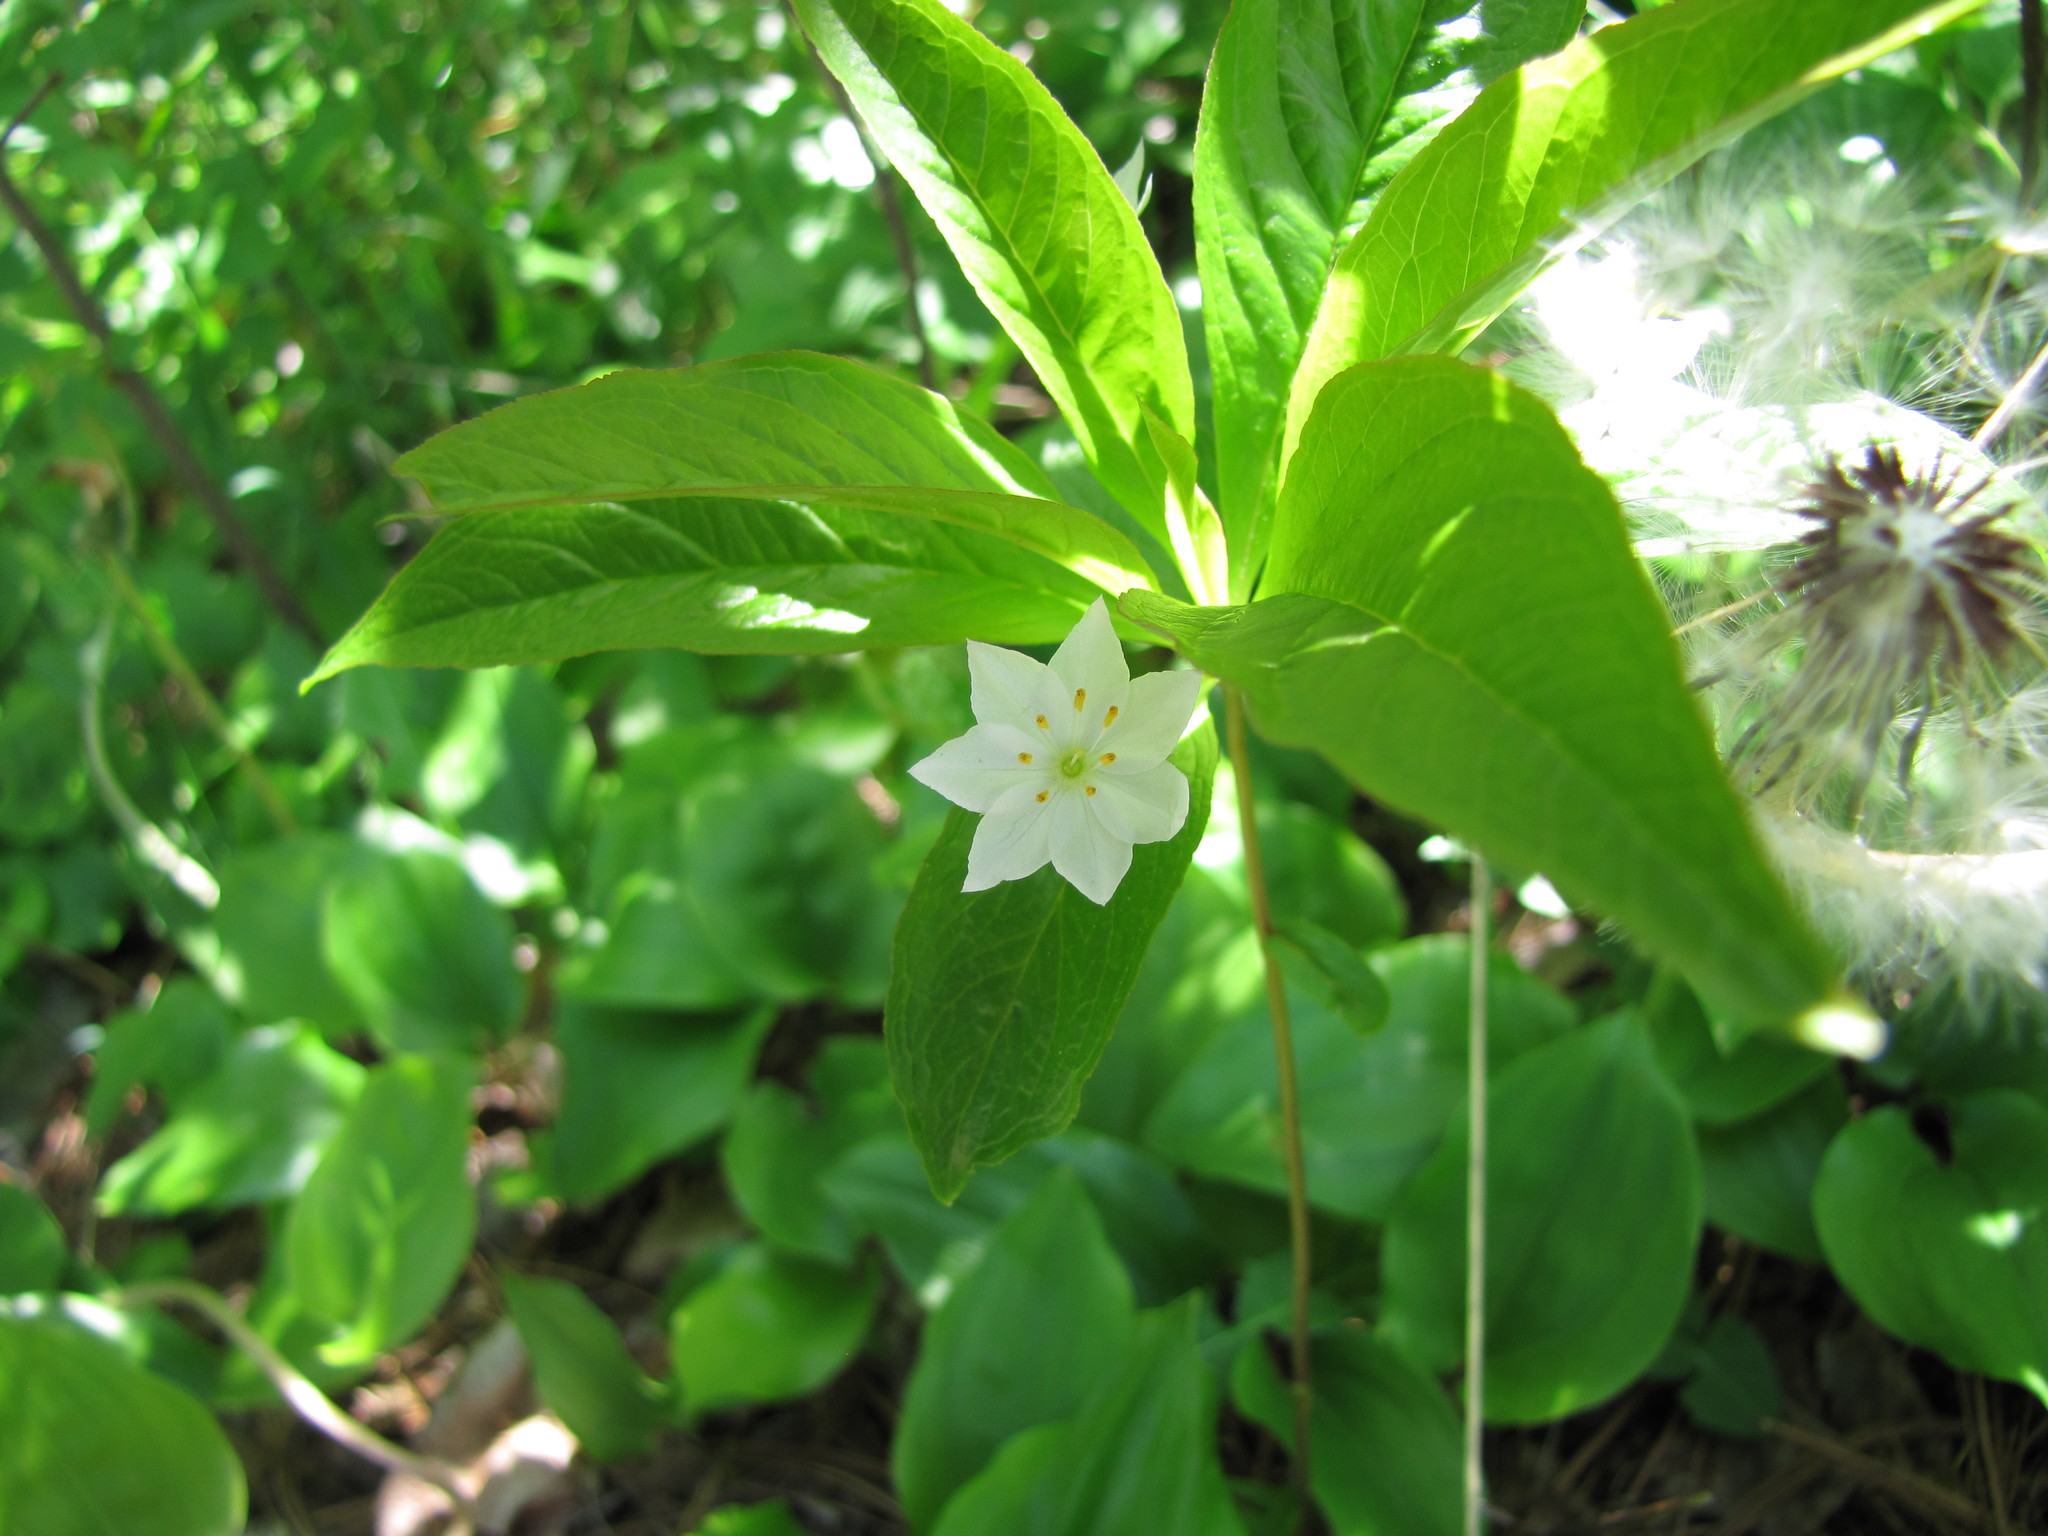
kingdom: Plantae
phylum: Tracheophyta
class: Magnoliopsida
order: Ericales
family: Primulaceae
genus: Lysimachia
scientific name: Lysimachia borealis
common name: American starflower
